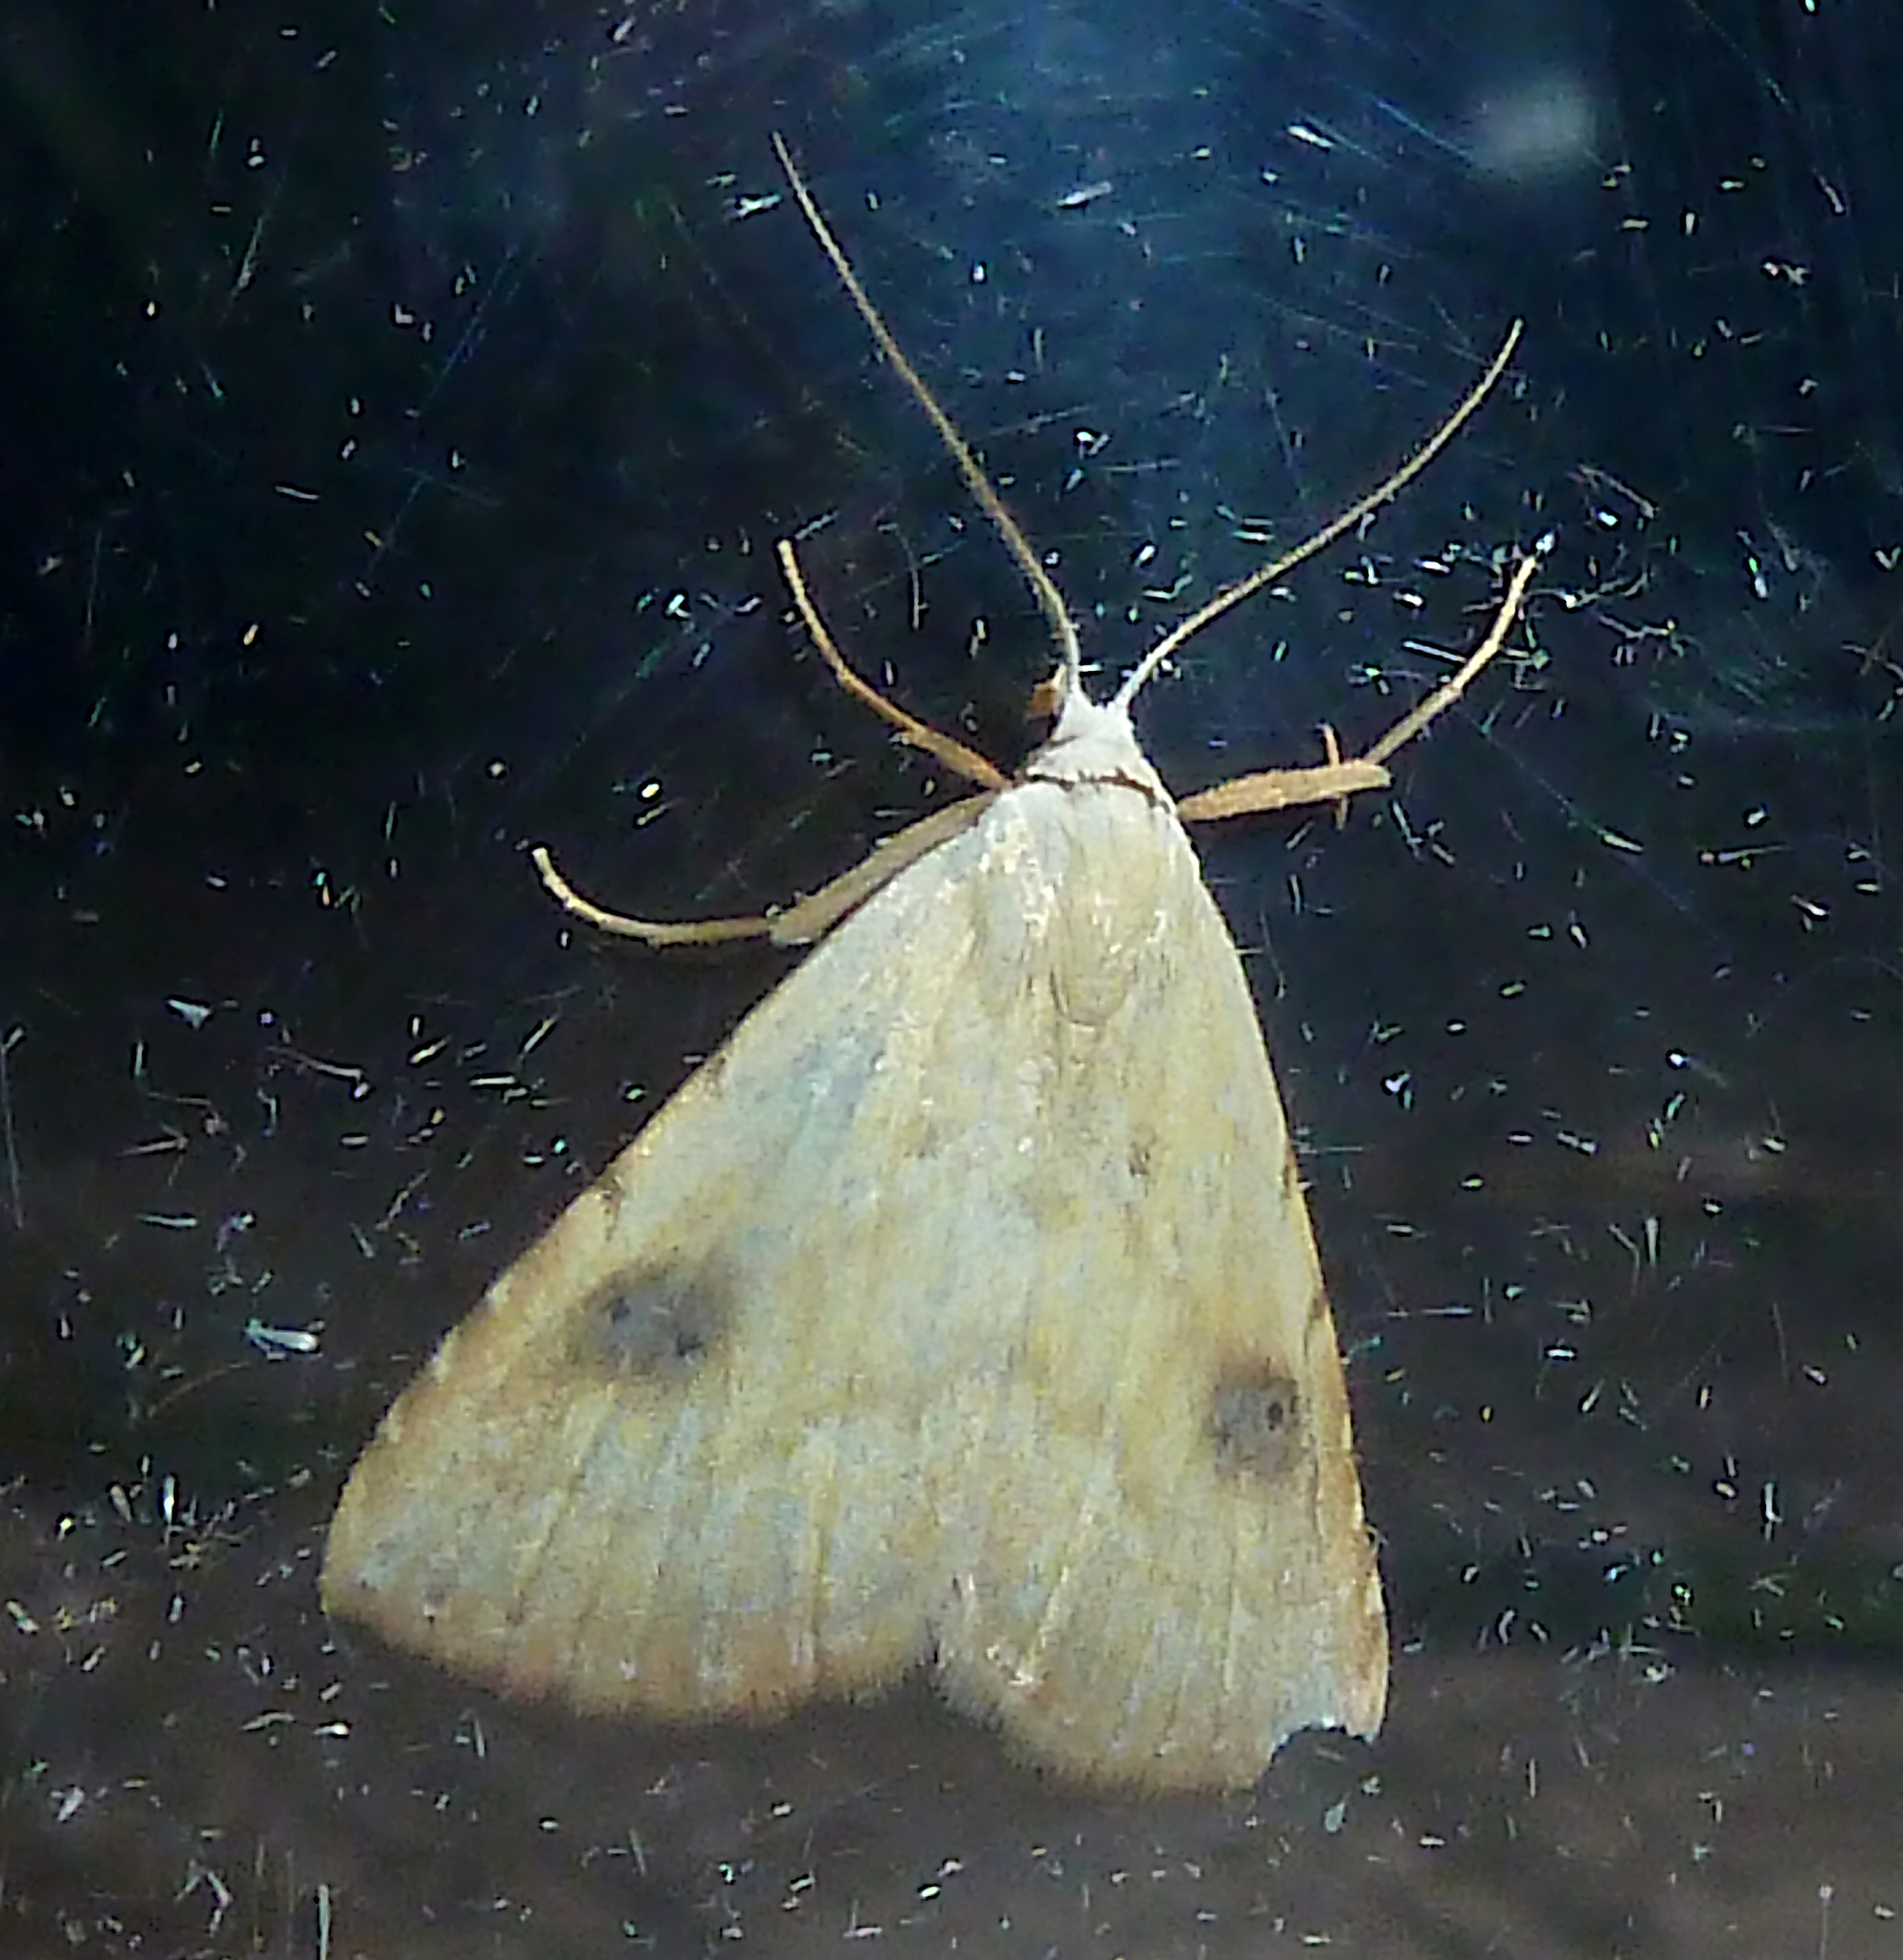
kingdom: Animalia
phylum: Arthropoda
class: Insecta
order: Lepidoptera
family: Erebidae
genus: Rivula
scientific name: Rivula sericealis
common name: Straw dot
